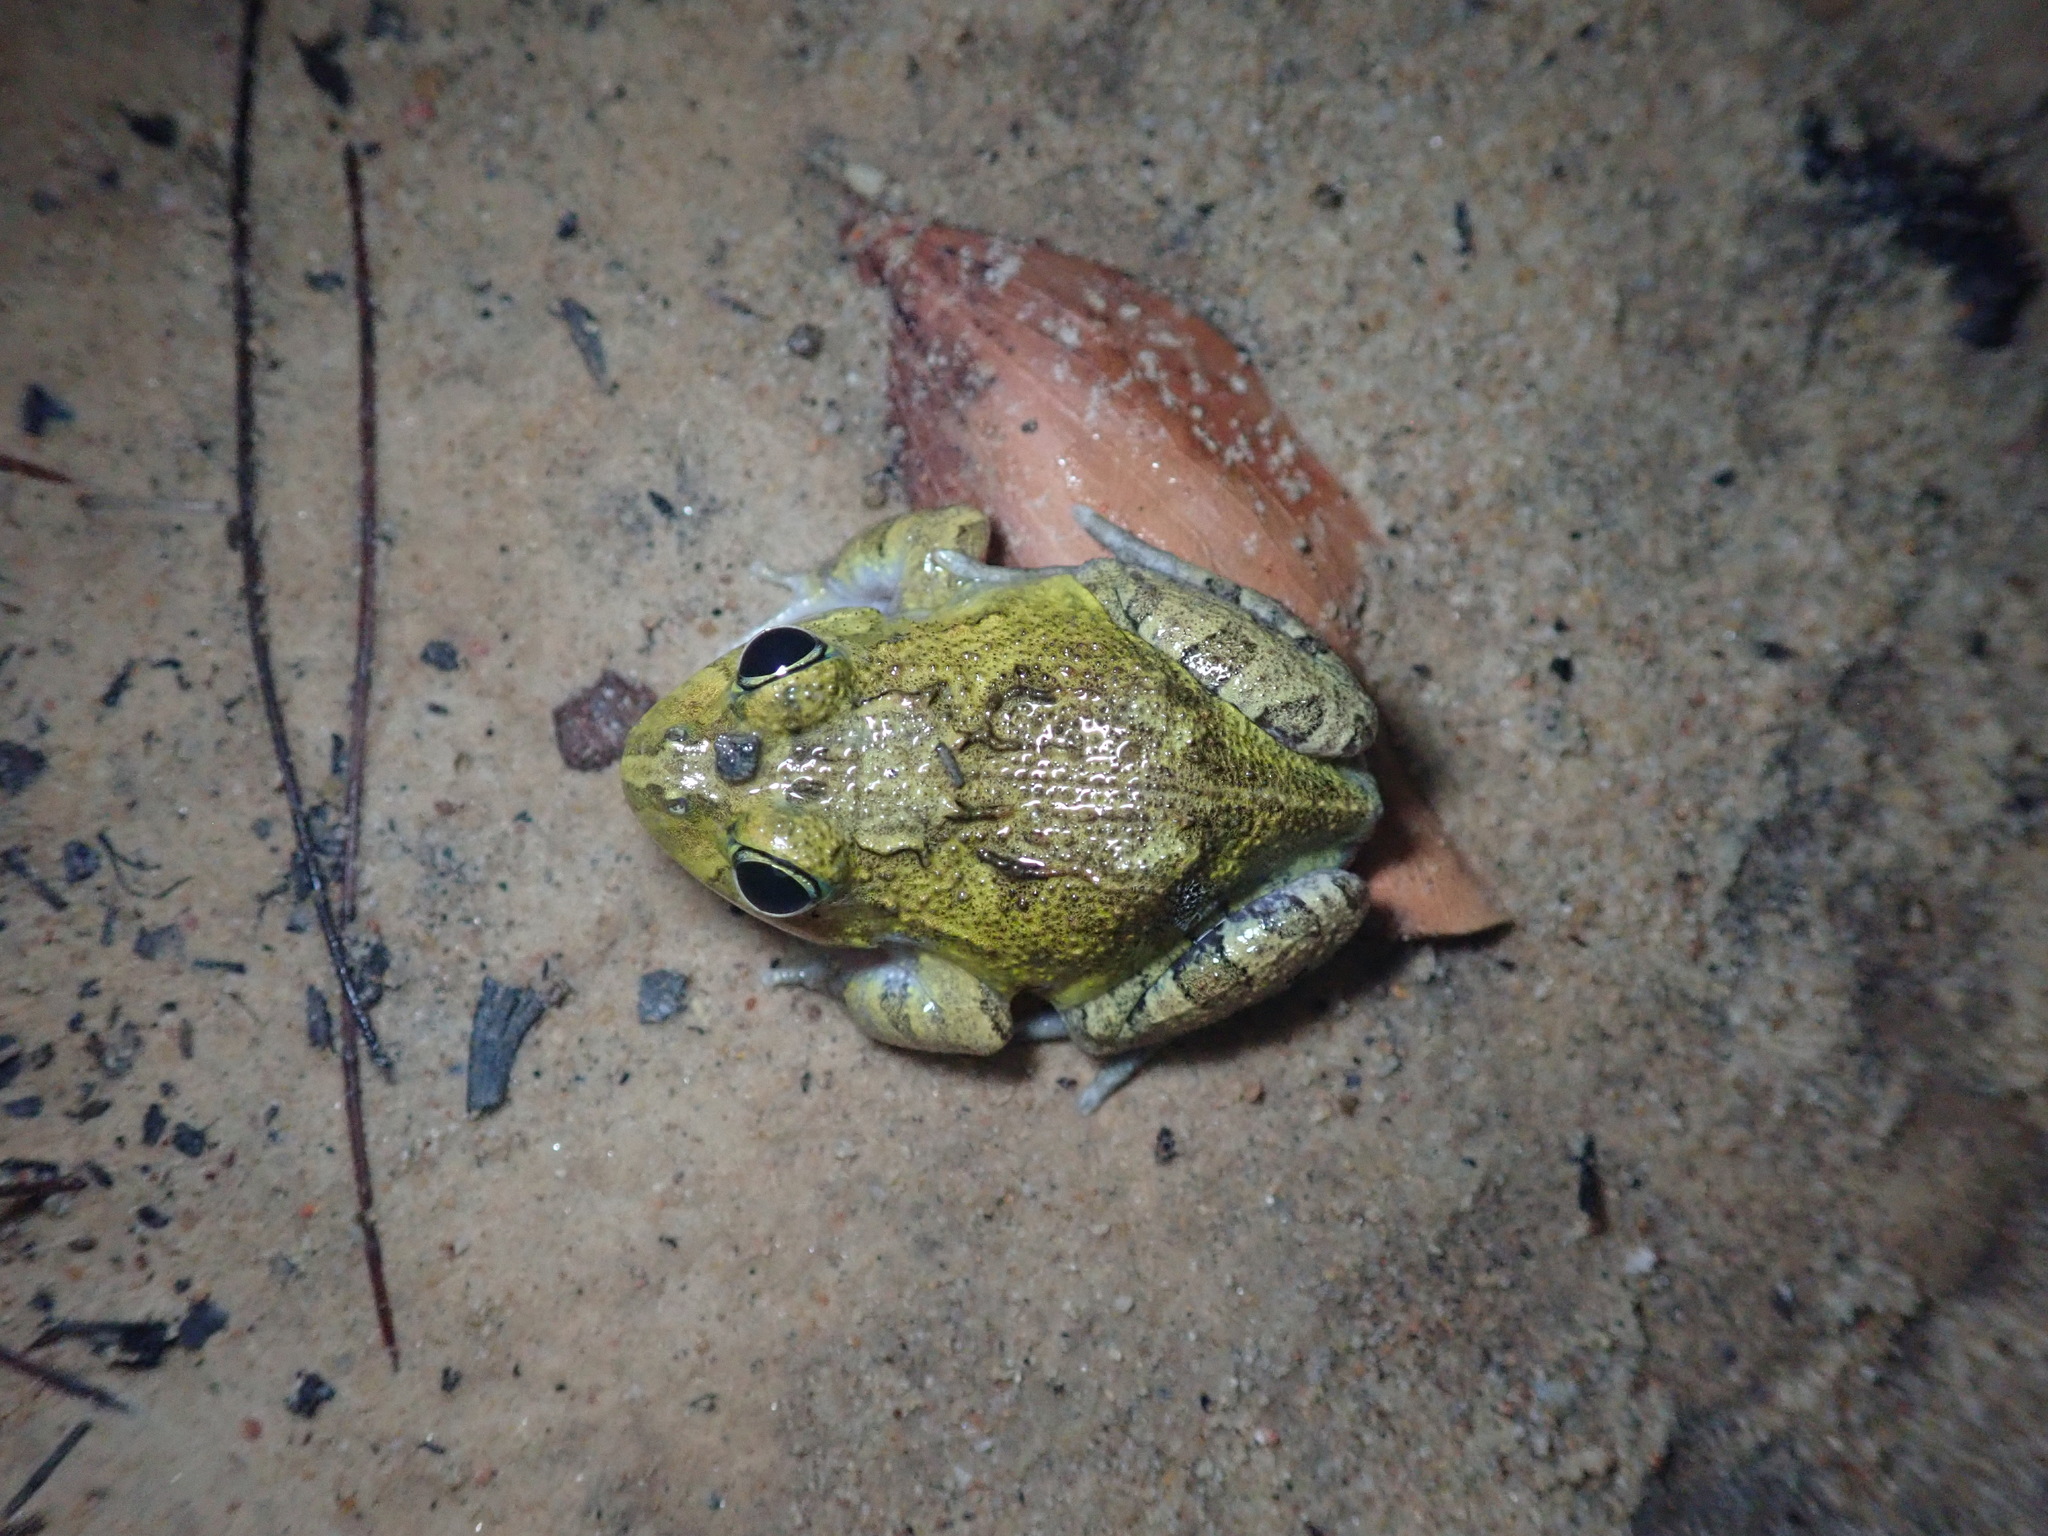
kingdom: Animalia
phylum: Chordata
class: Amphibia
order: Anura
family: Limnodynastidae
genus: Platyplectrum
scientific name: Platyplectrum ornatum
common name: Ornate burrowing frog
